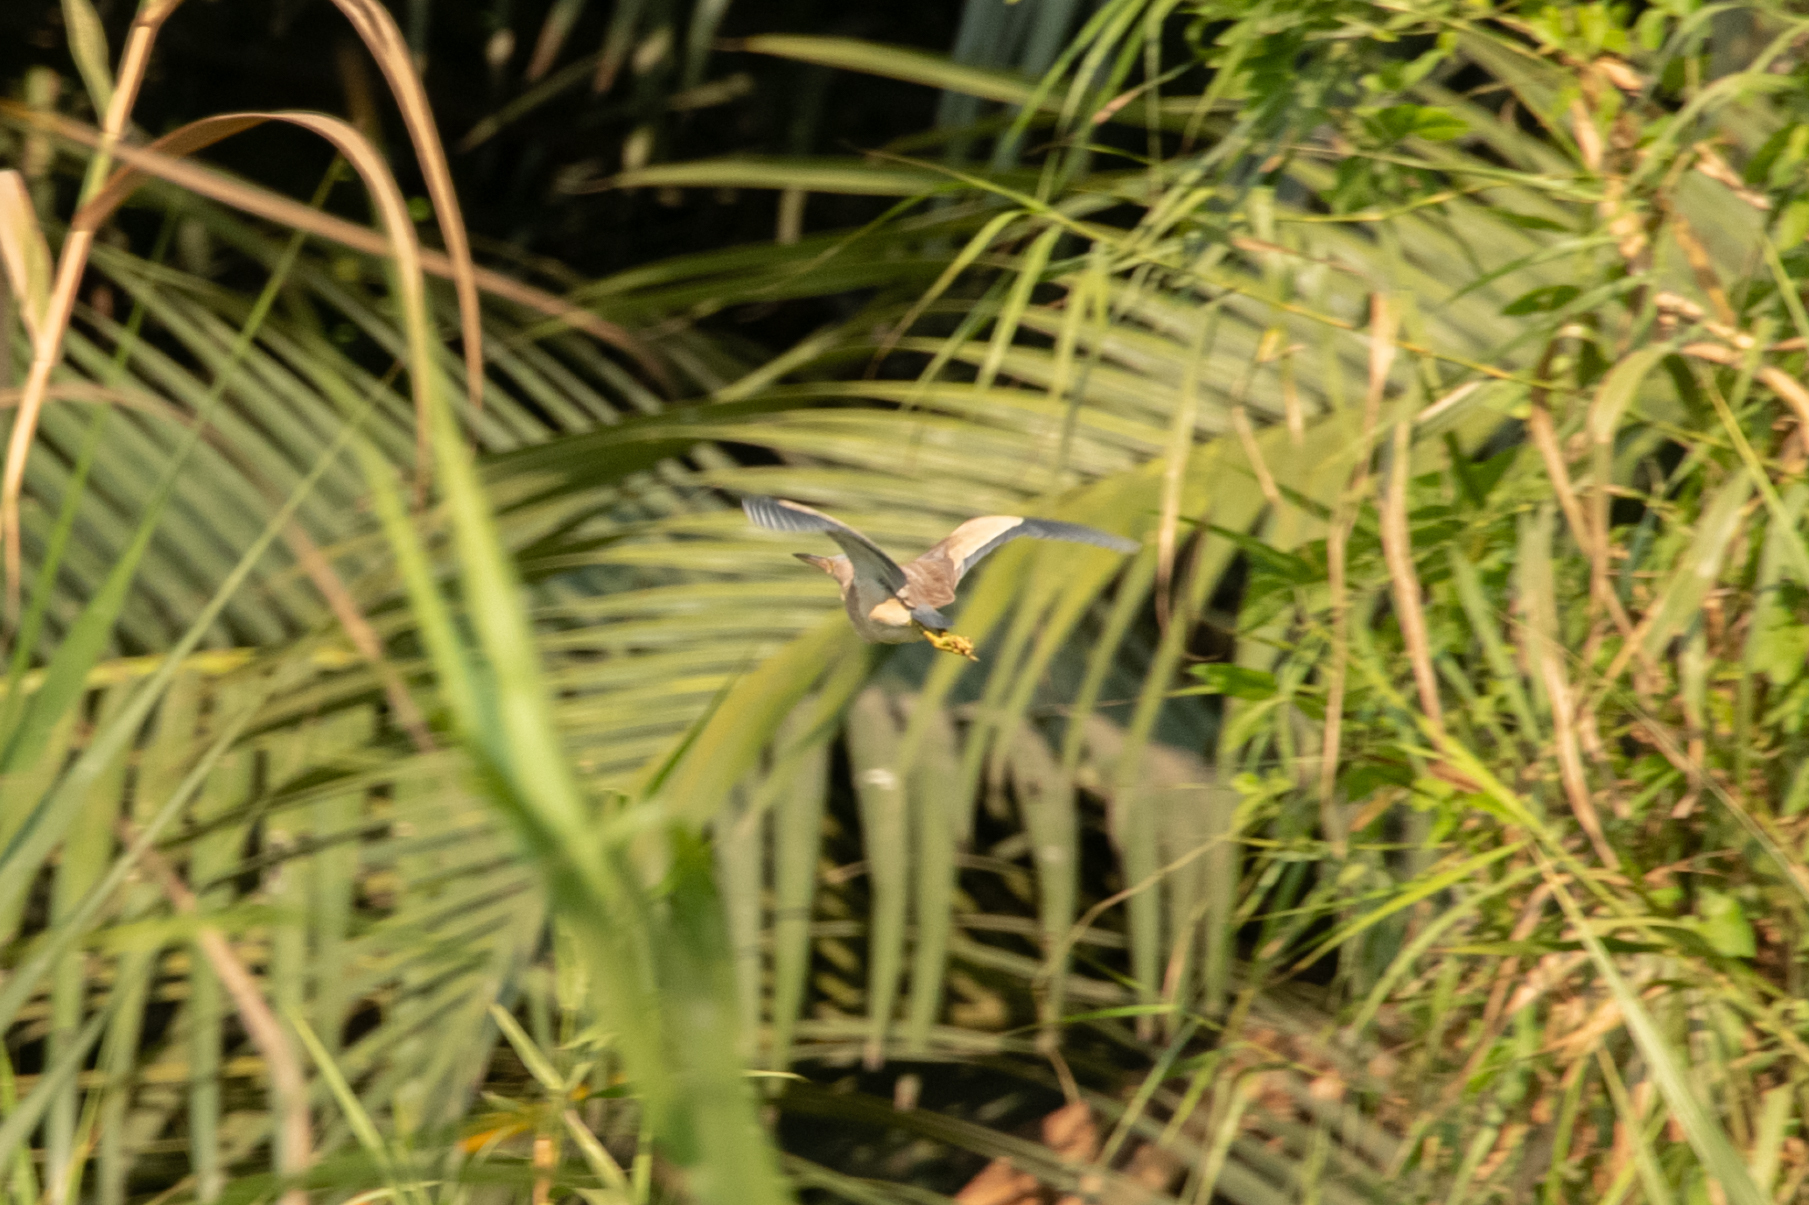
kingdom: Animalia
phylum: Chordata
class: Aves
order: Pelecaniformes
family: Ardeidae
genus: Ixobrychus
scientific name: Ixobrychus sinensis
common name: Yellow bittern
